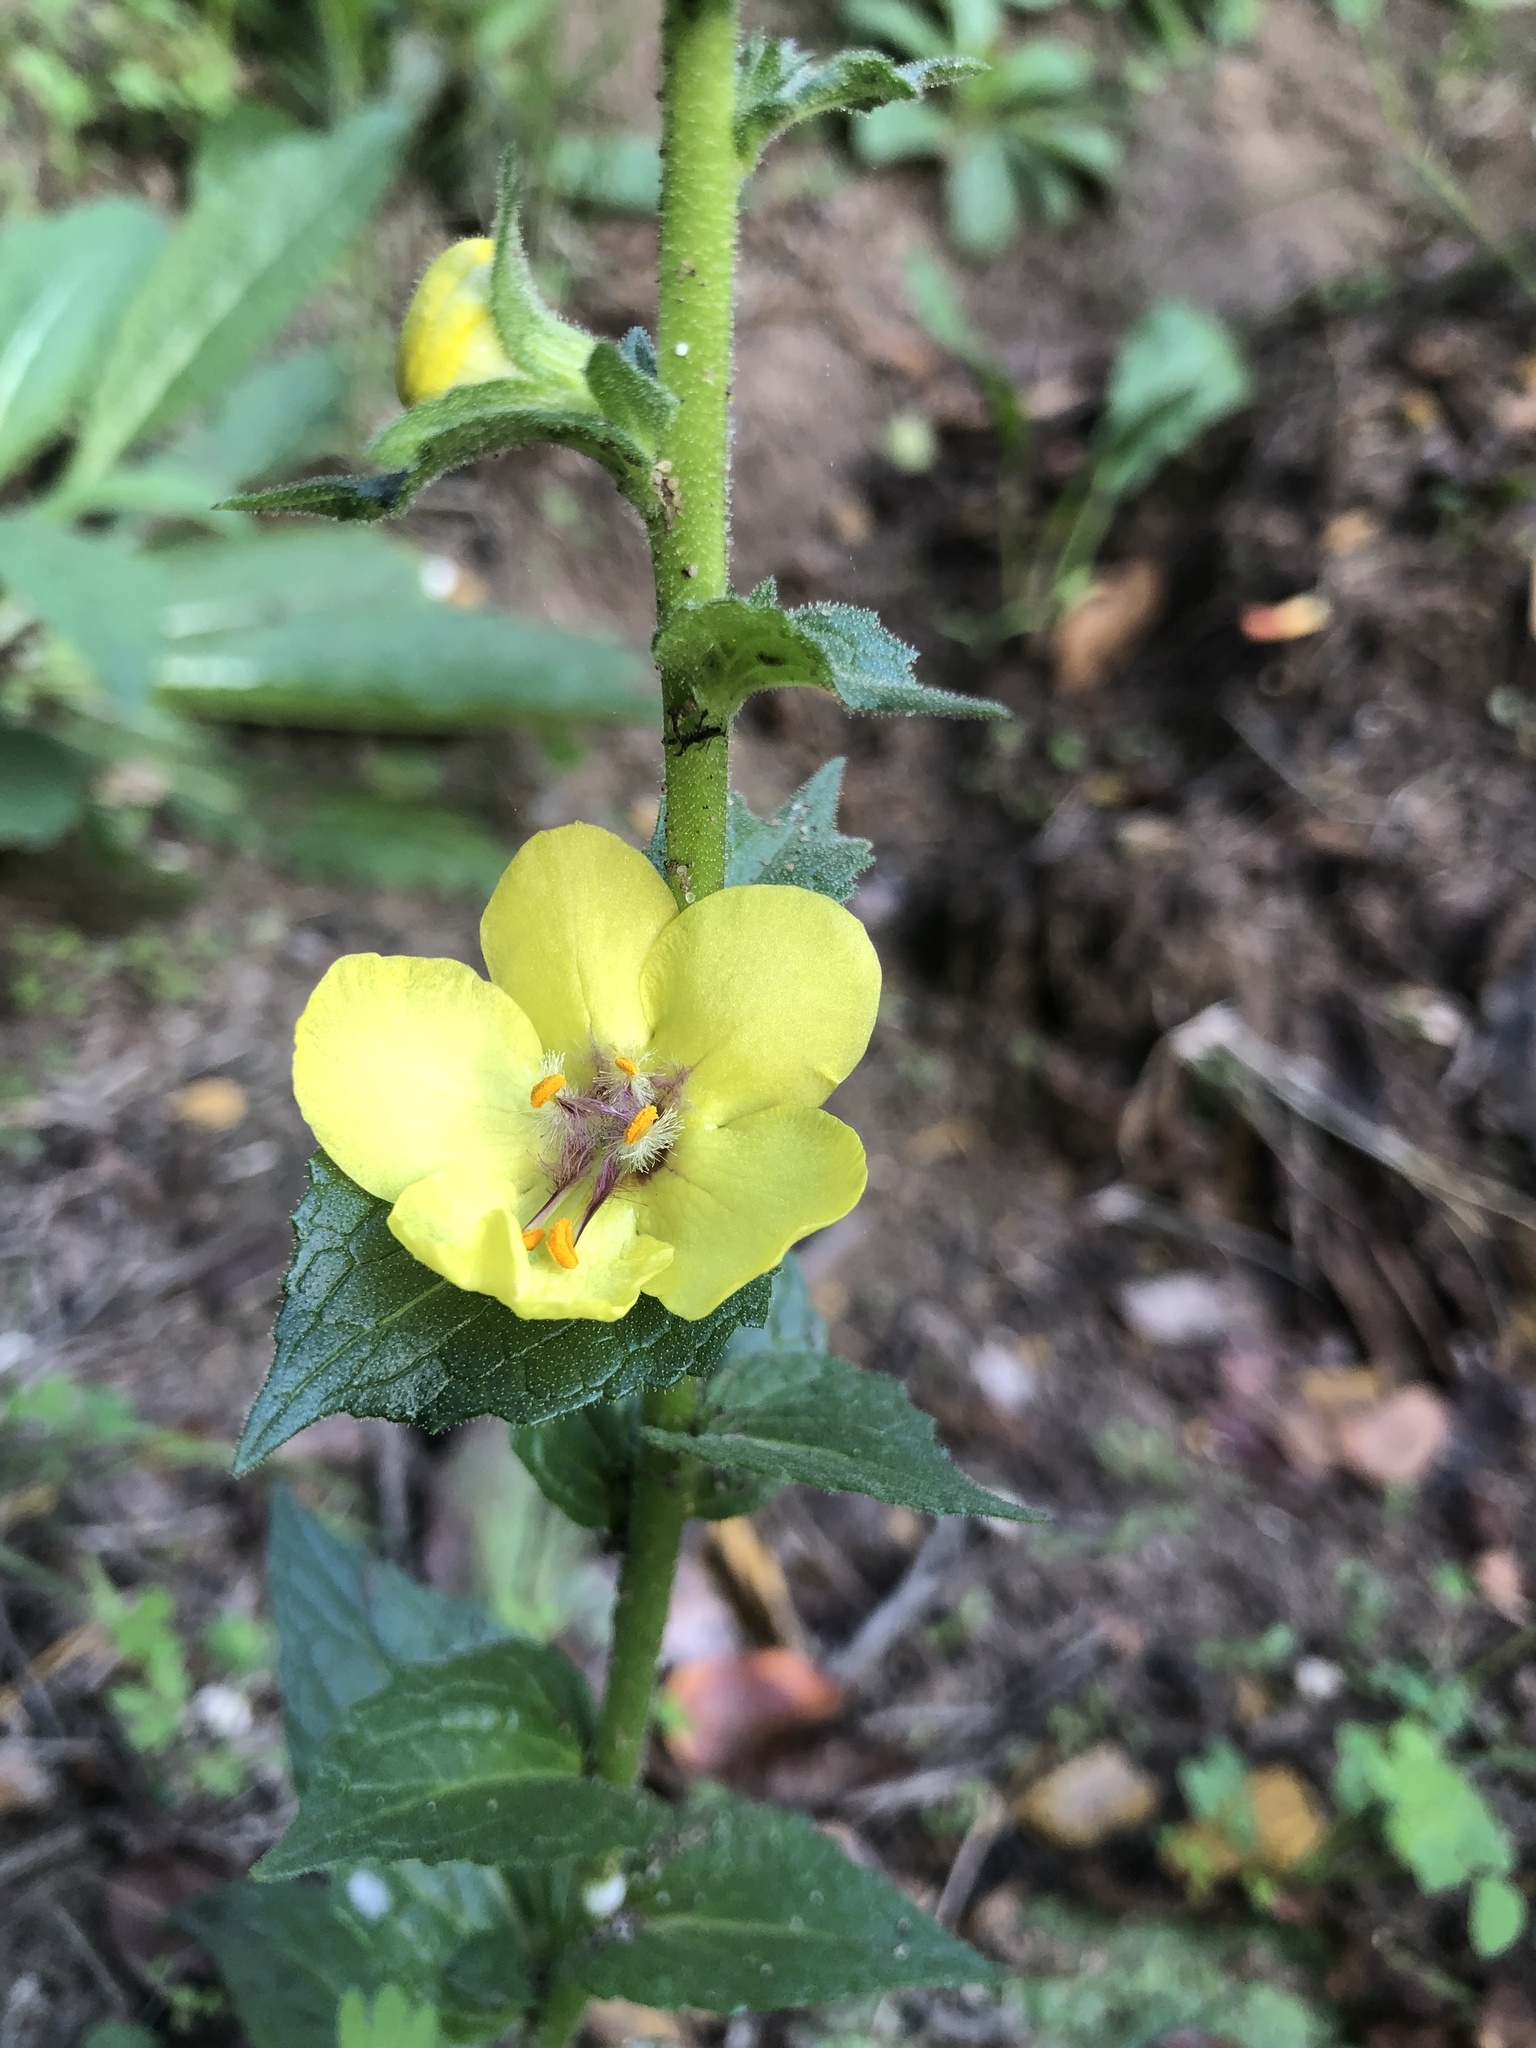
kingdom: Plantae
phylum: Tracheophyta
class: Magnoliopsida
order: Lamiales
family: Scrophulariaceae
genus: Verbascum
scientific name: Verbascum virgatum
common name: Twiggy mullein
